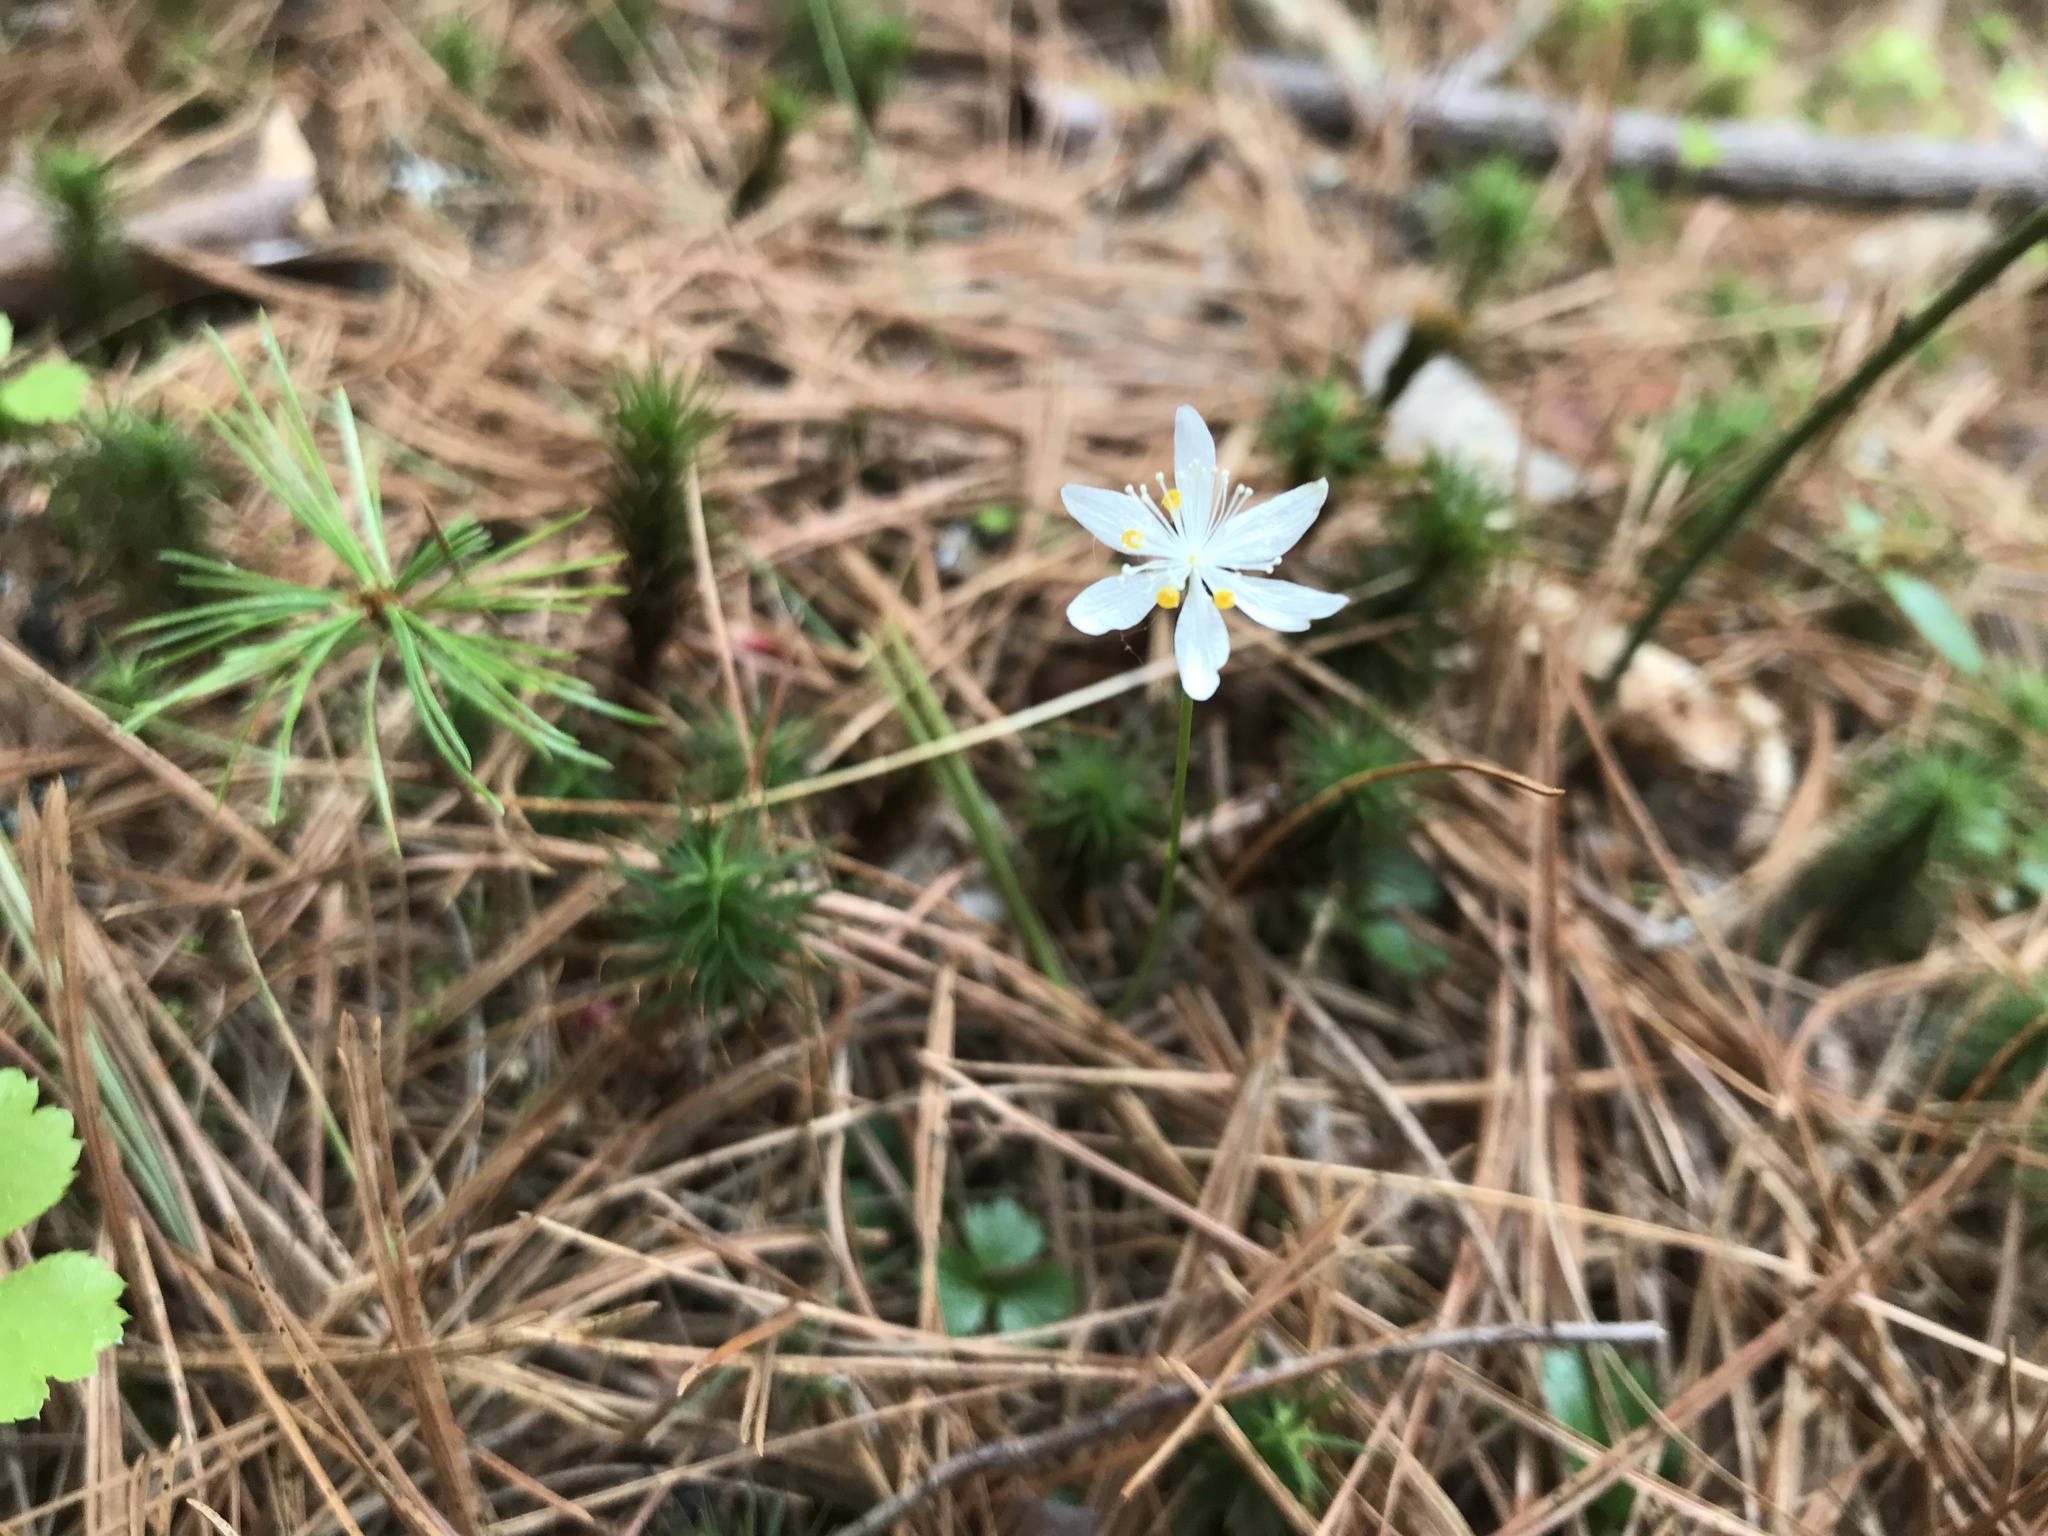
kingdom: Plantae
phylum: Tracheophyta
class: Magnoliopsida
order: Ranunculales
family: Ranunculaceae
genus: Coptis
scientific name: Coptis trifolia
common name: Canker-root
